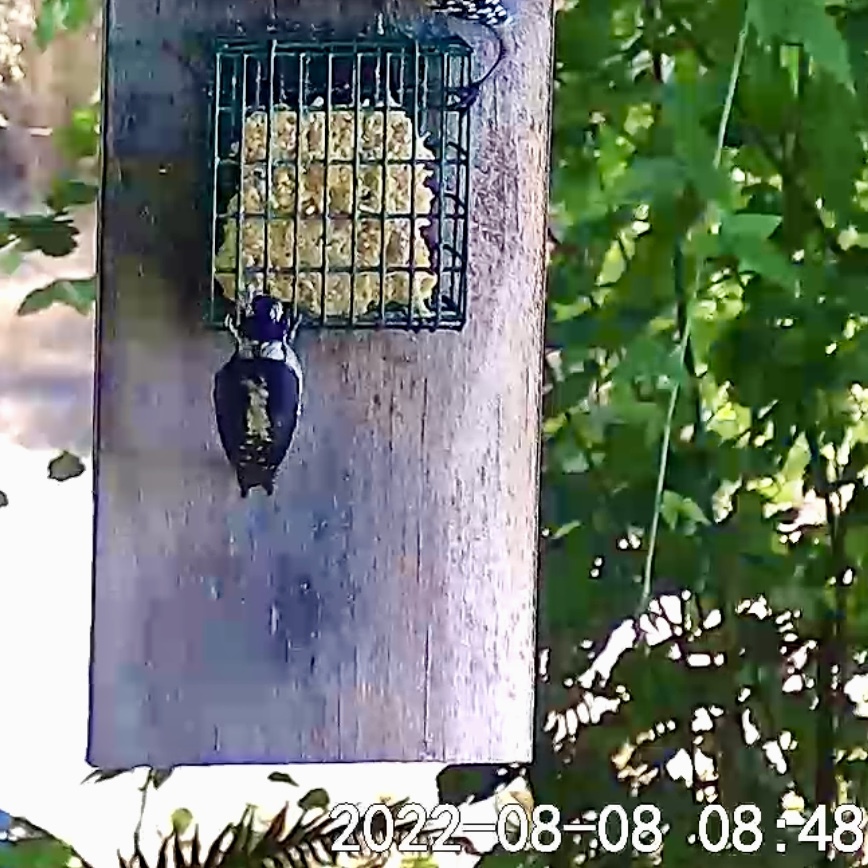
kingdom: Animalia
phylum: Chordata
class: Aves
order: Piciformes
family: Picidae
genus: Dryobates
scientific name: Dryobates pubescens
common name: Downy woodpecker
